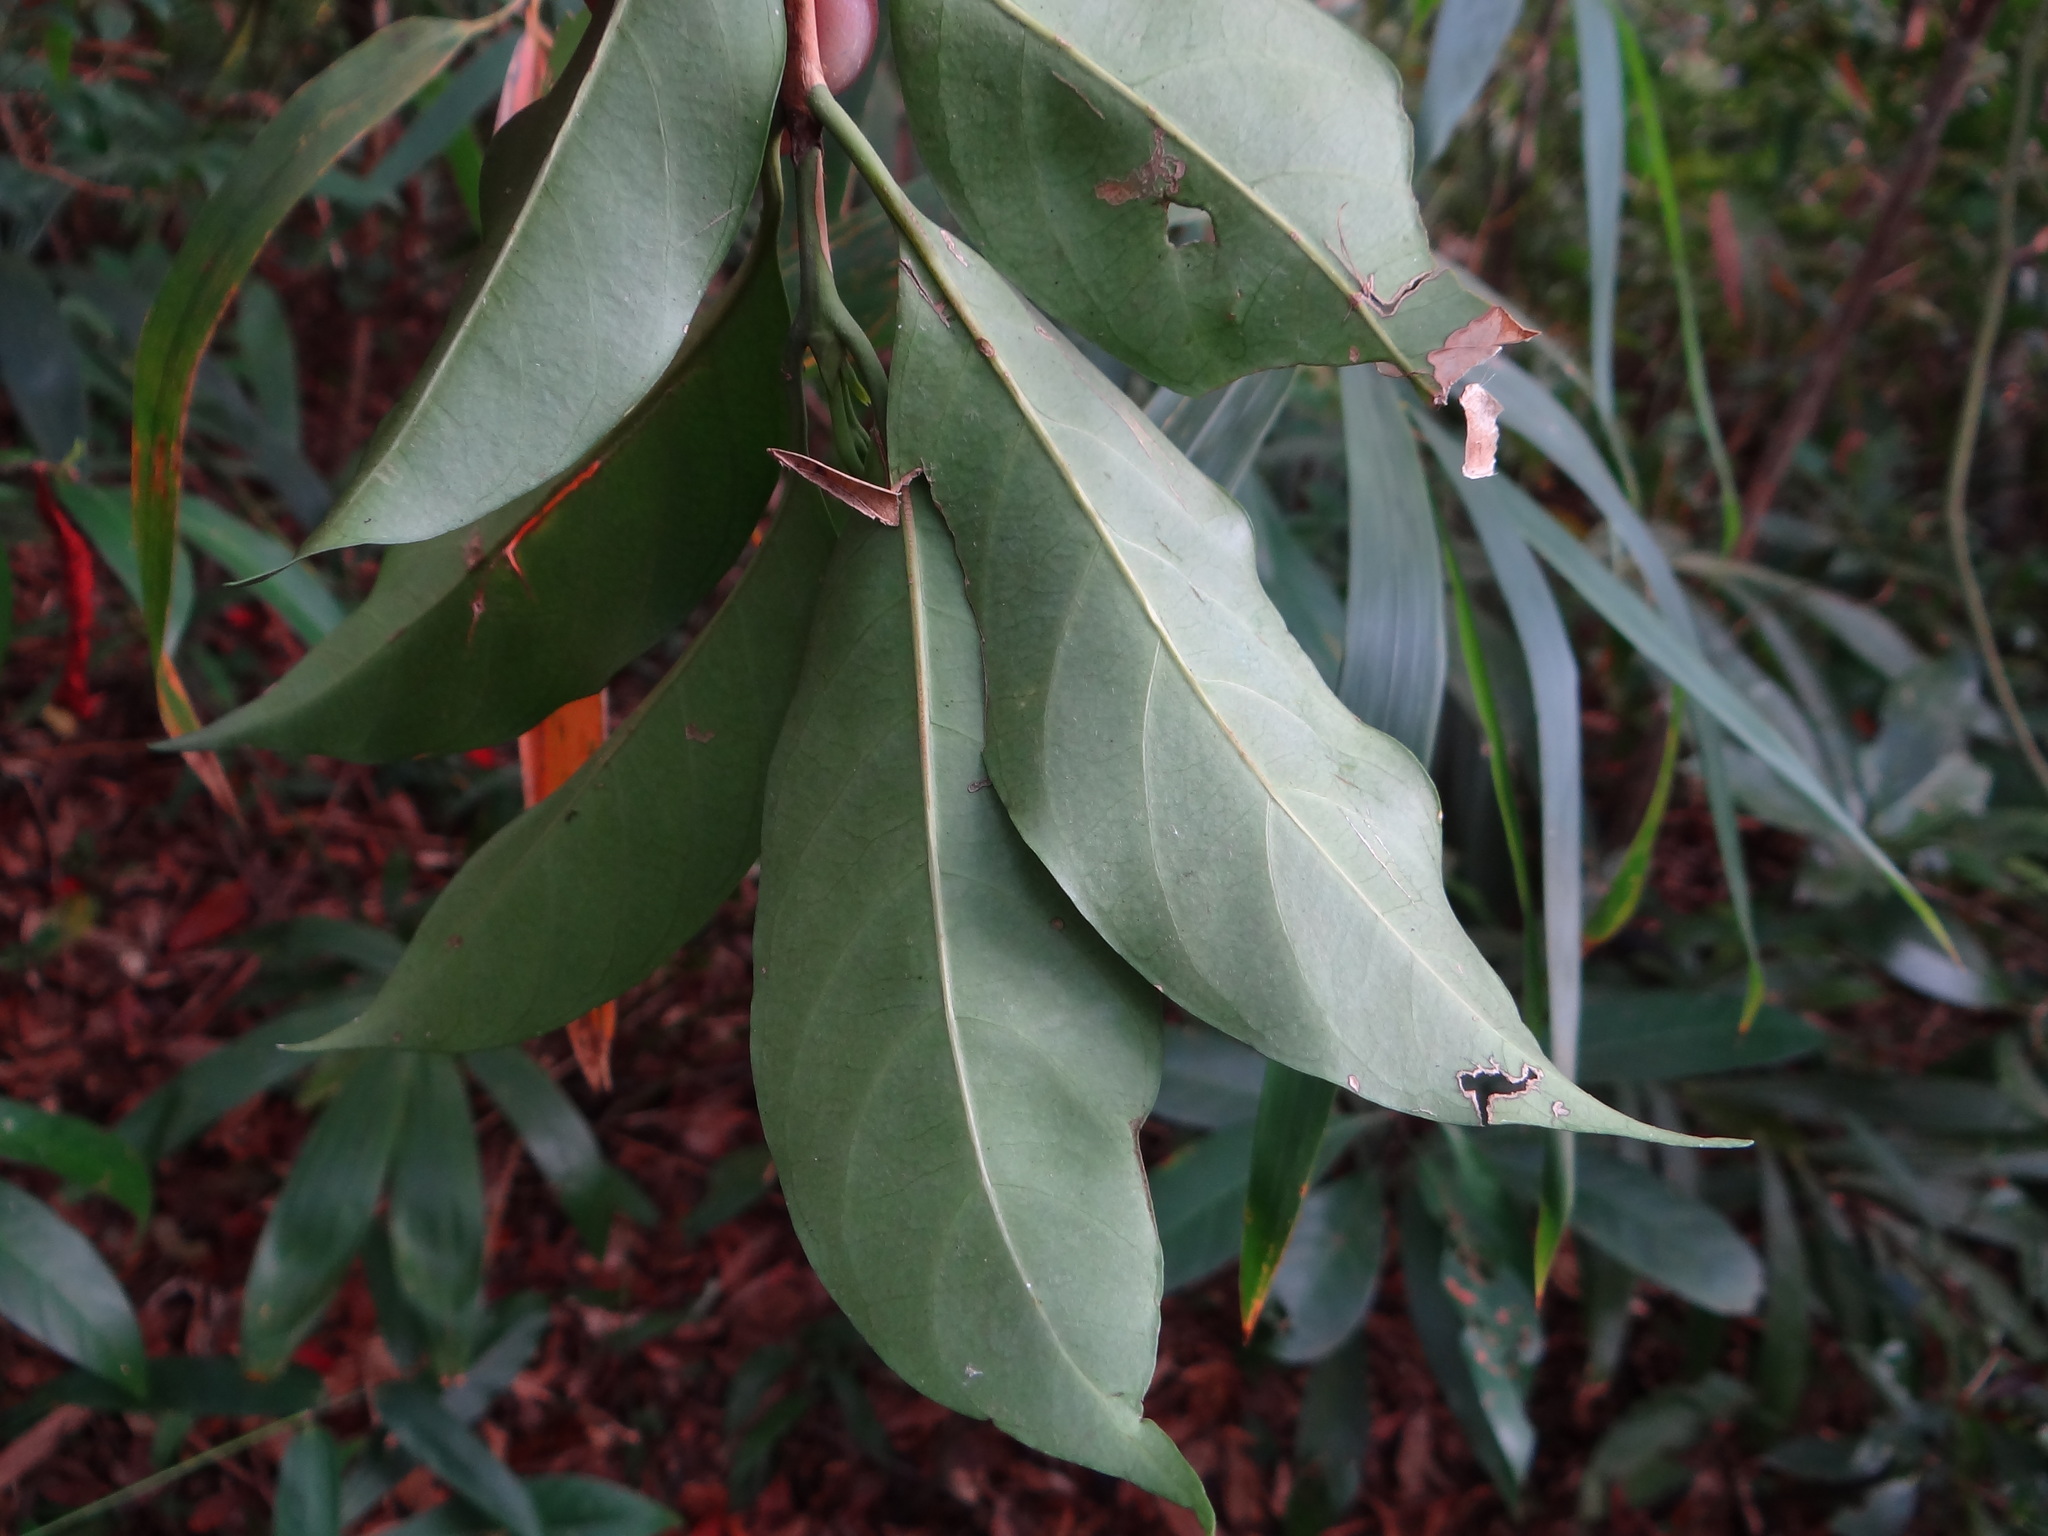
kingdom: Plantae
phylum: Tracheophyta
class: Magnoliopsida
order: Gentianales
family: Rubiaceae
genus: Diplospora
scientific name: Diplospora dubia
